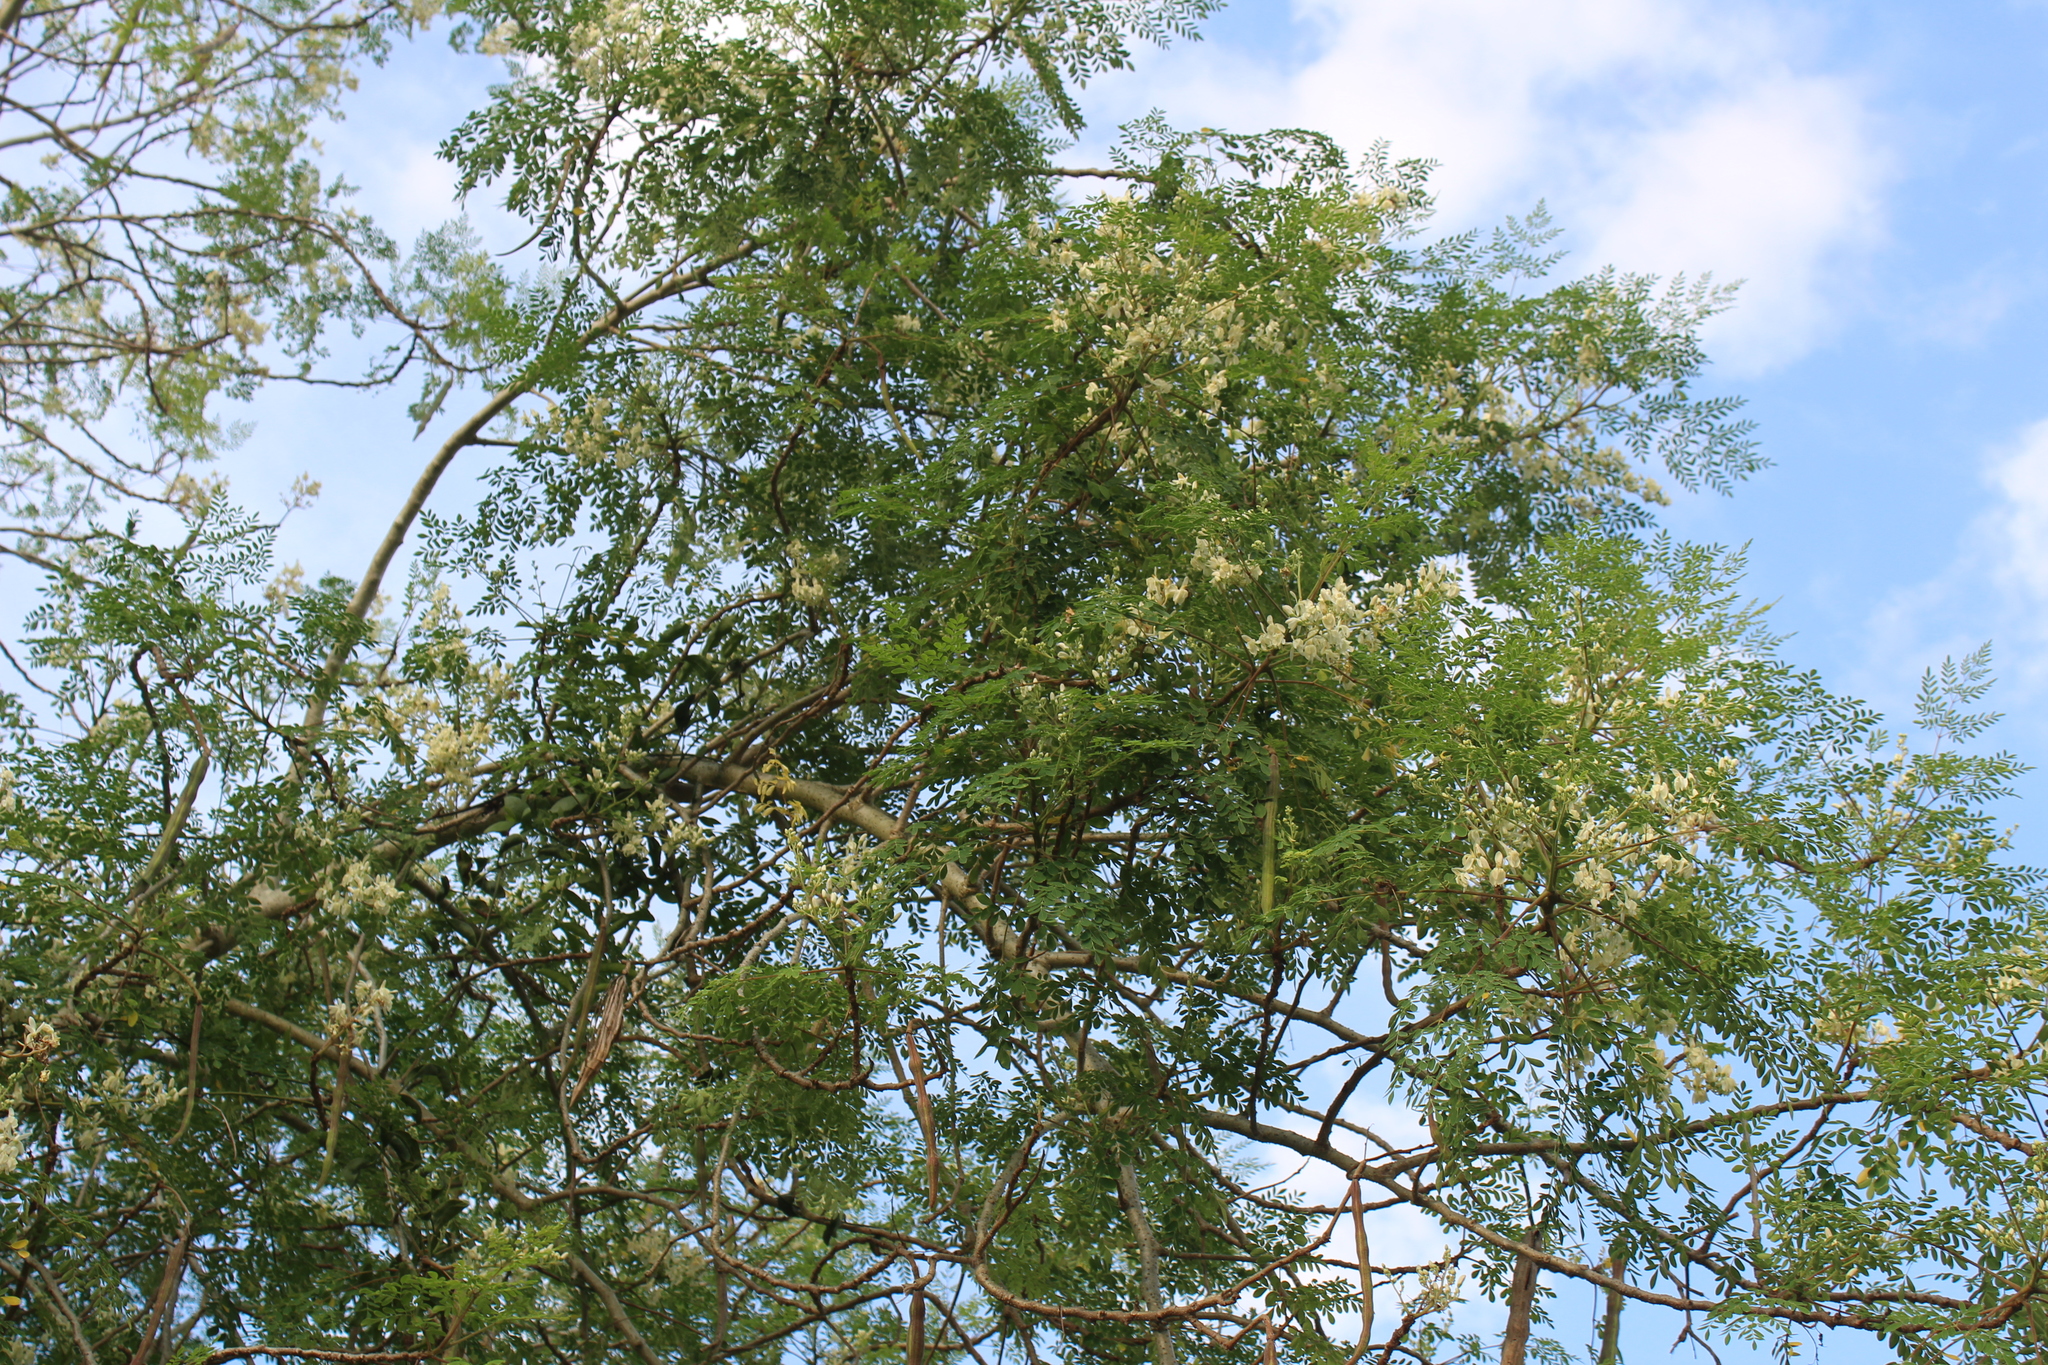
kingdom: Plantae
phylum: Tracheophyta
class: Magnoliopsida
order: Brassicales
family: Moringaceae
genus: Moringa
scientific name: Moringa oleifera
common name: Horseradish-tree
